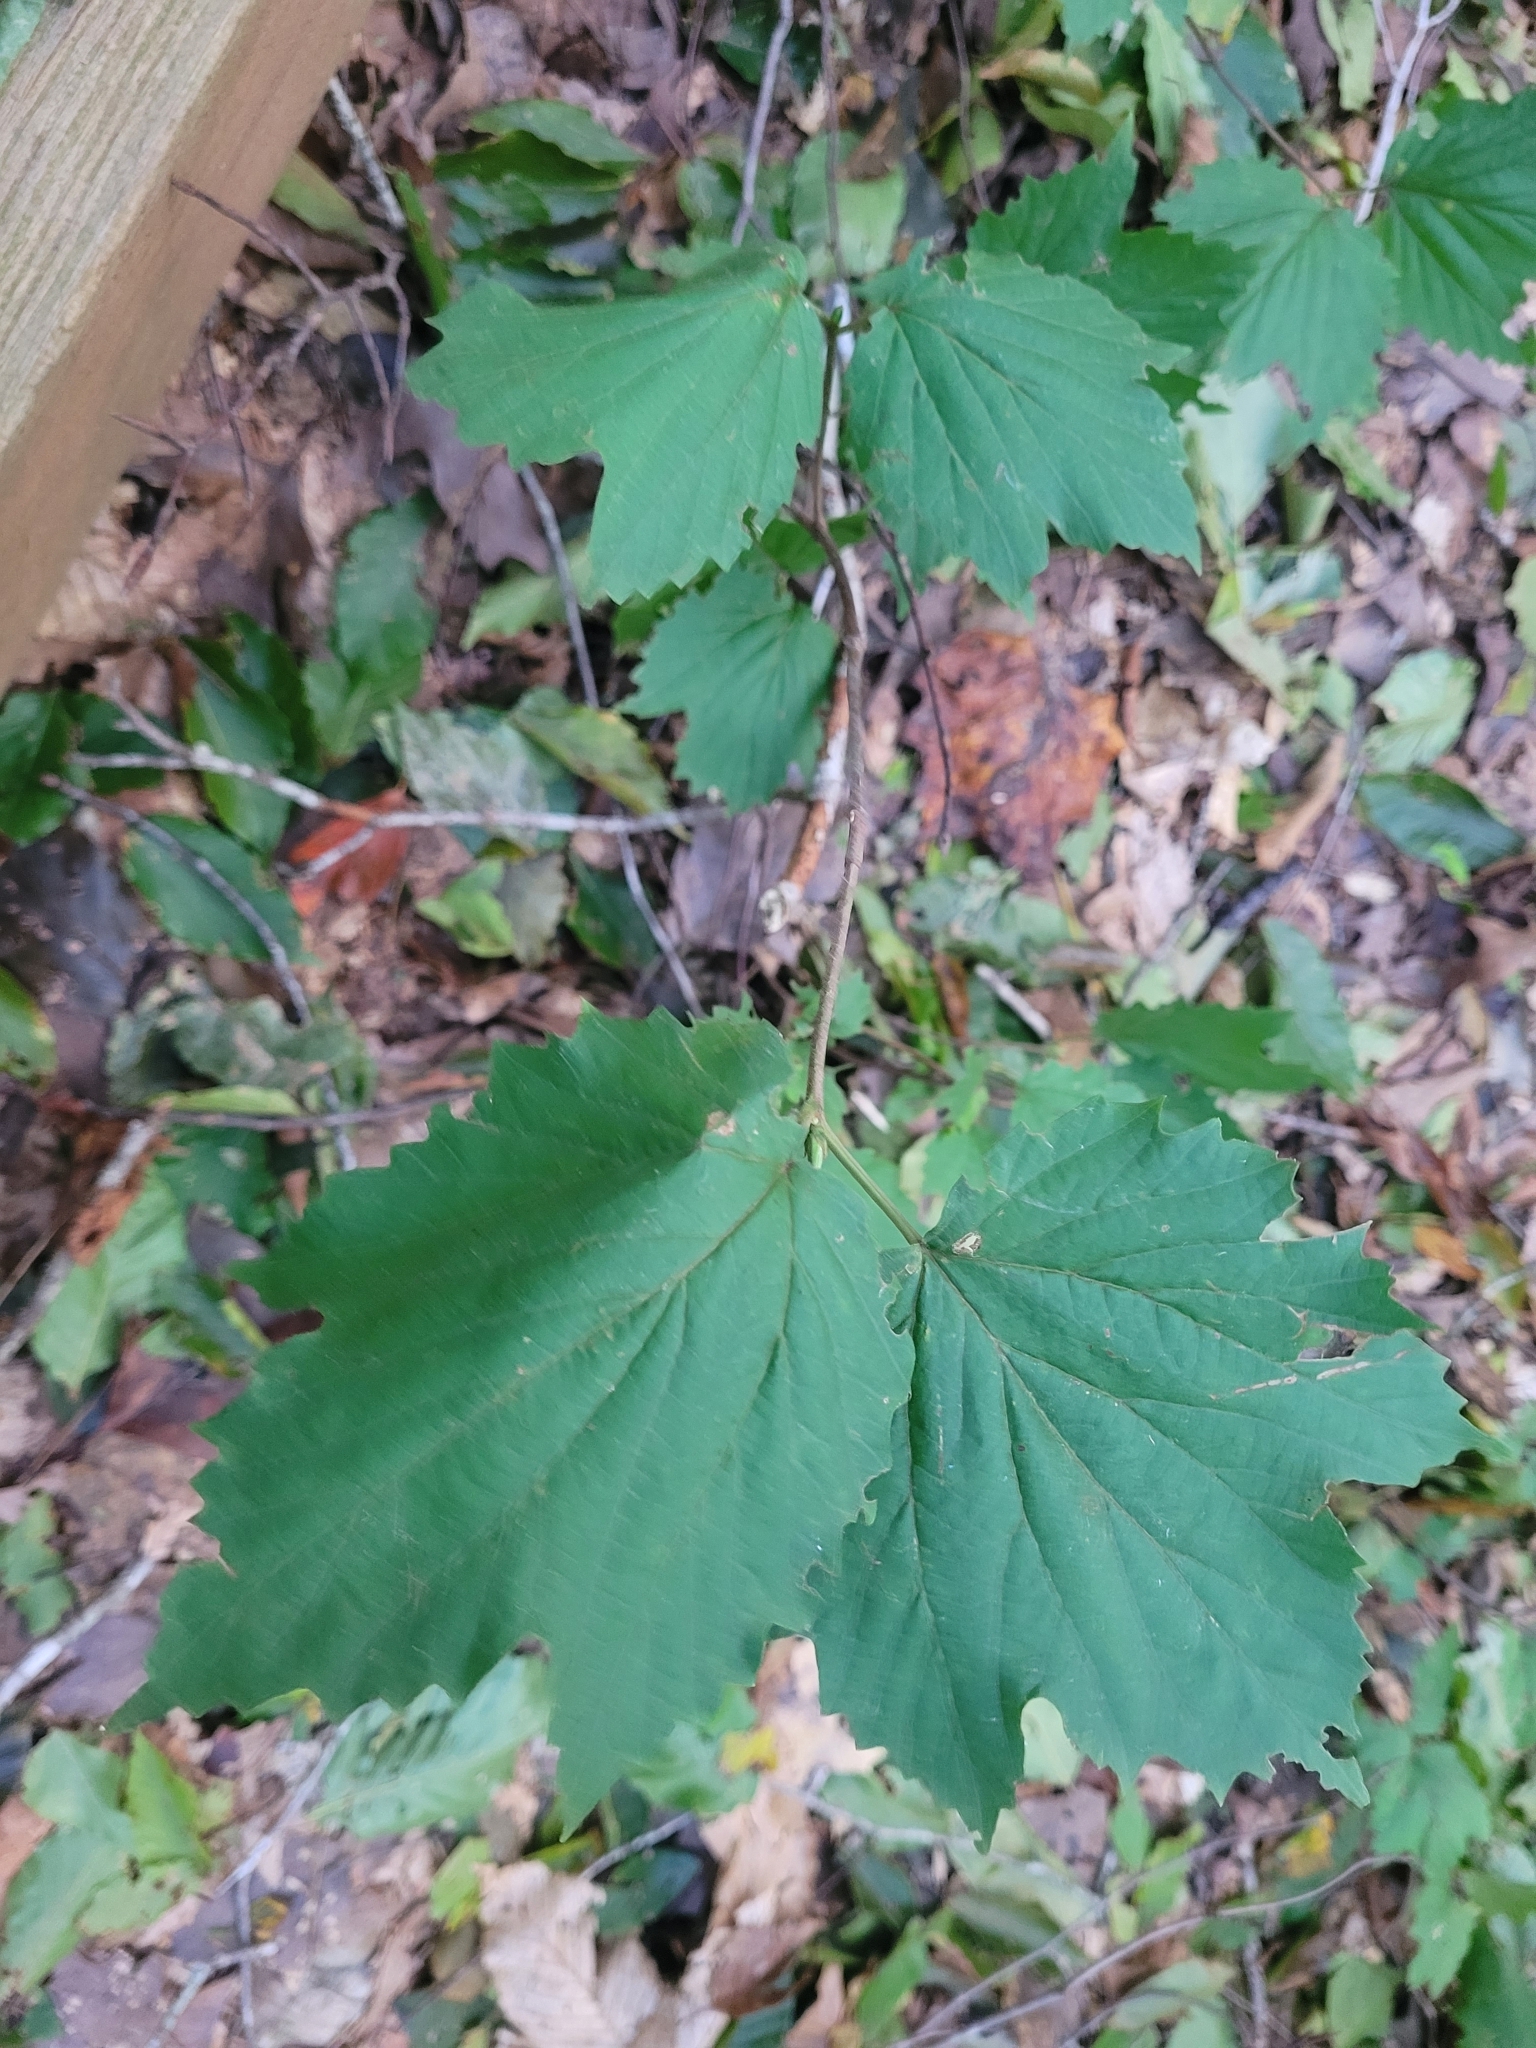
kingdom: Plantae
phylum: Tracheophyta
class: Magnoliopsida
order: Dipsacales
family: Viburnaceae
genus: Viburnum
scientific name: Viburnum acerifolium
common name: Dockmackie
